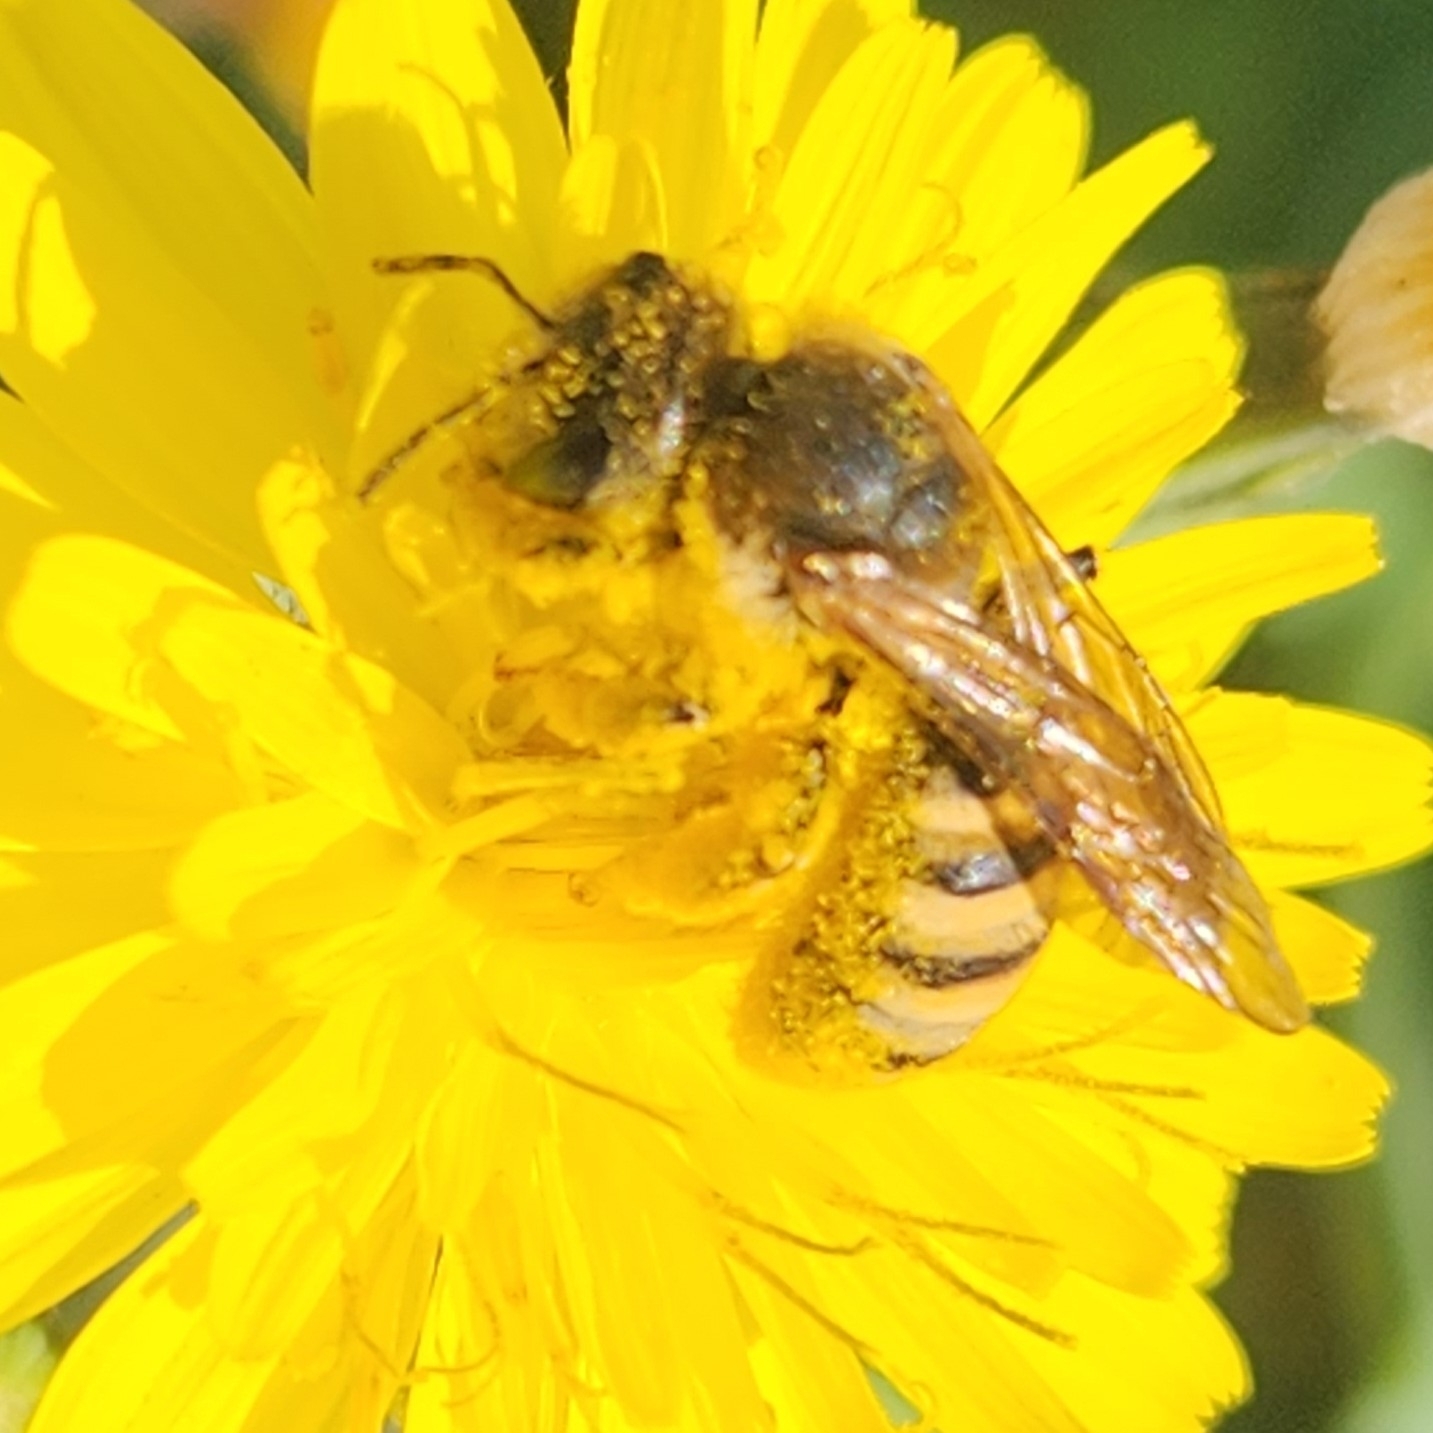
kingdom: Animalia
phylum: Arthropoda
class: Insecta
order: Hymenoptera
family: Halictidae
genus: Halictus
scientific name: Halictus scabiosae
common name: Great banded furrow bee
